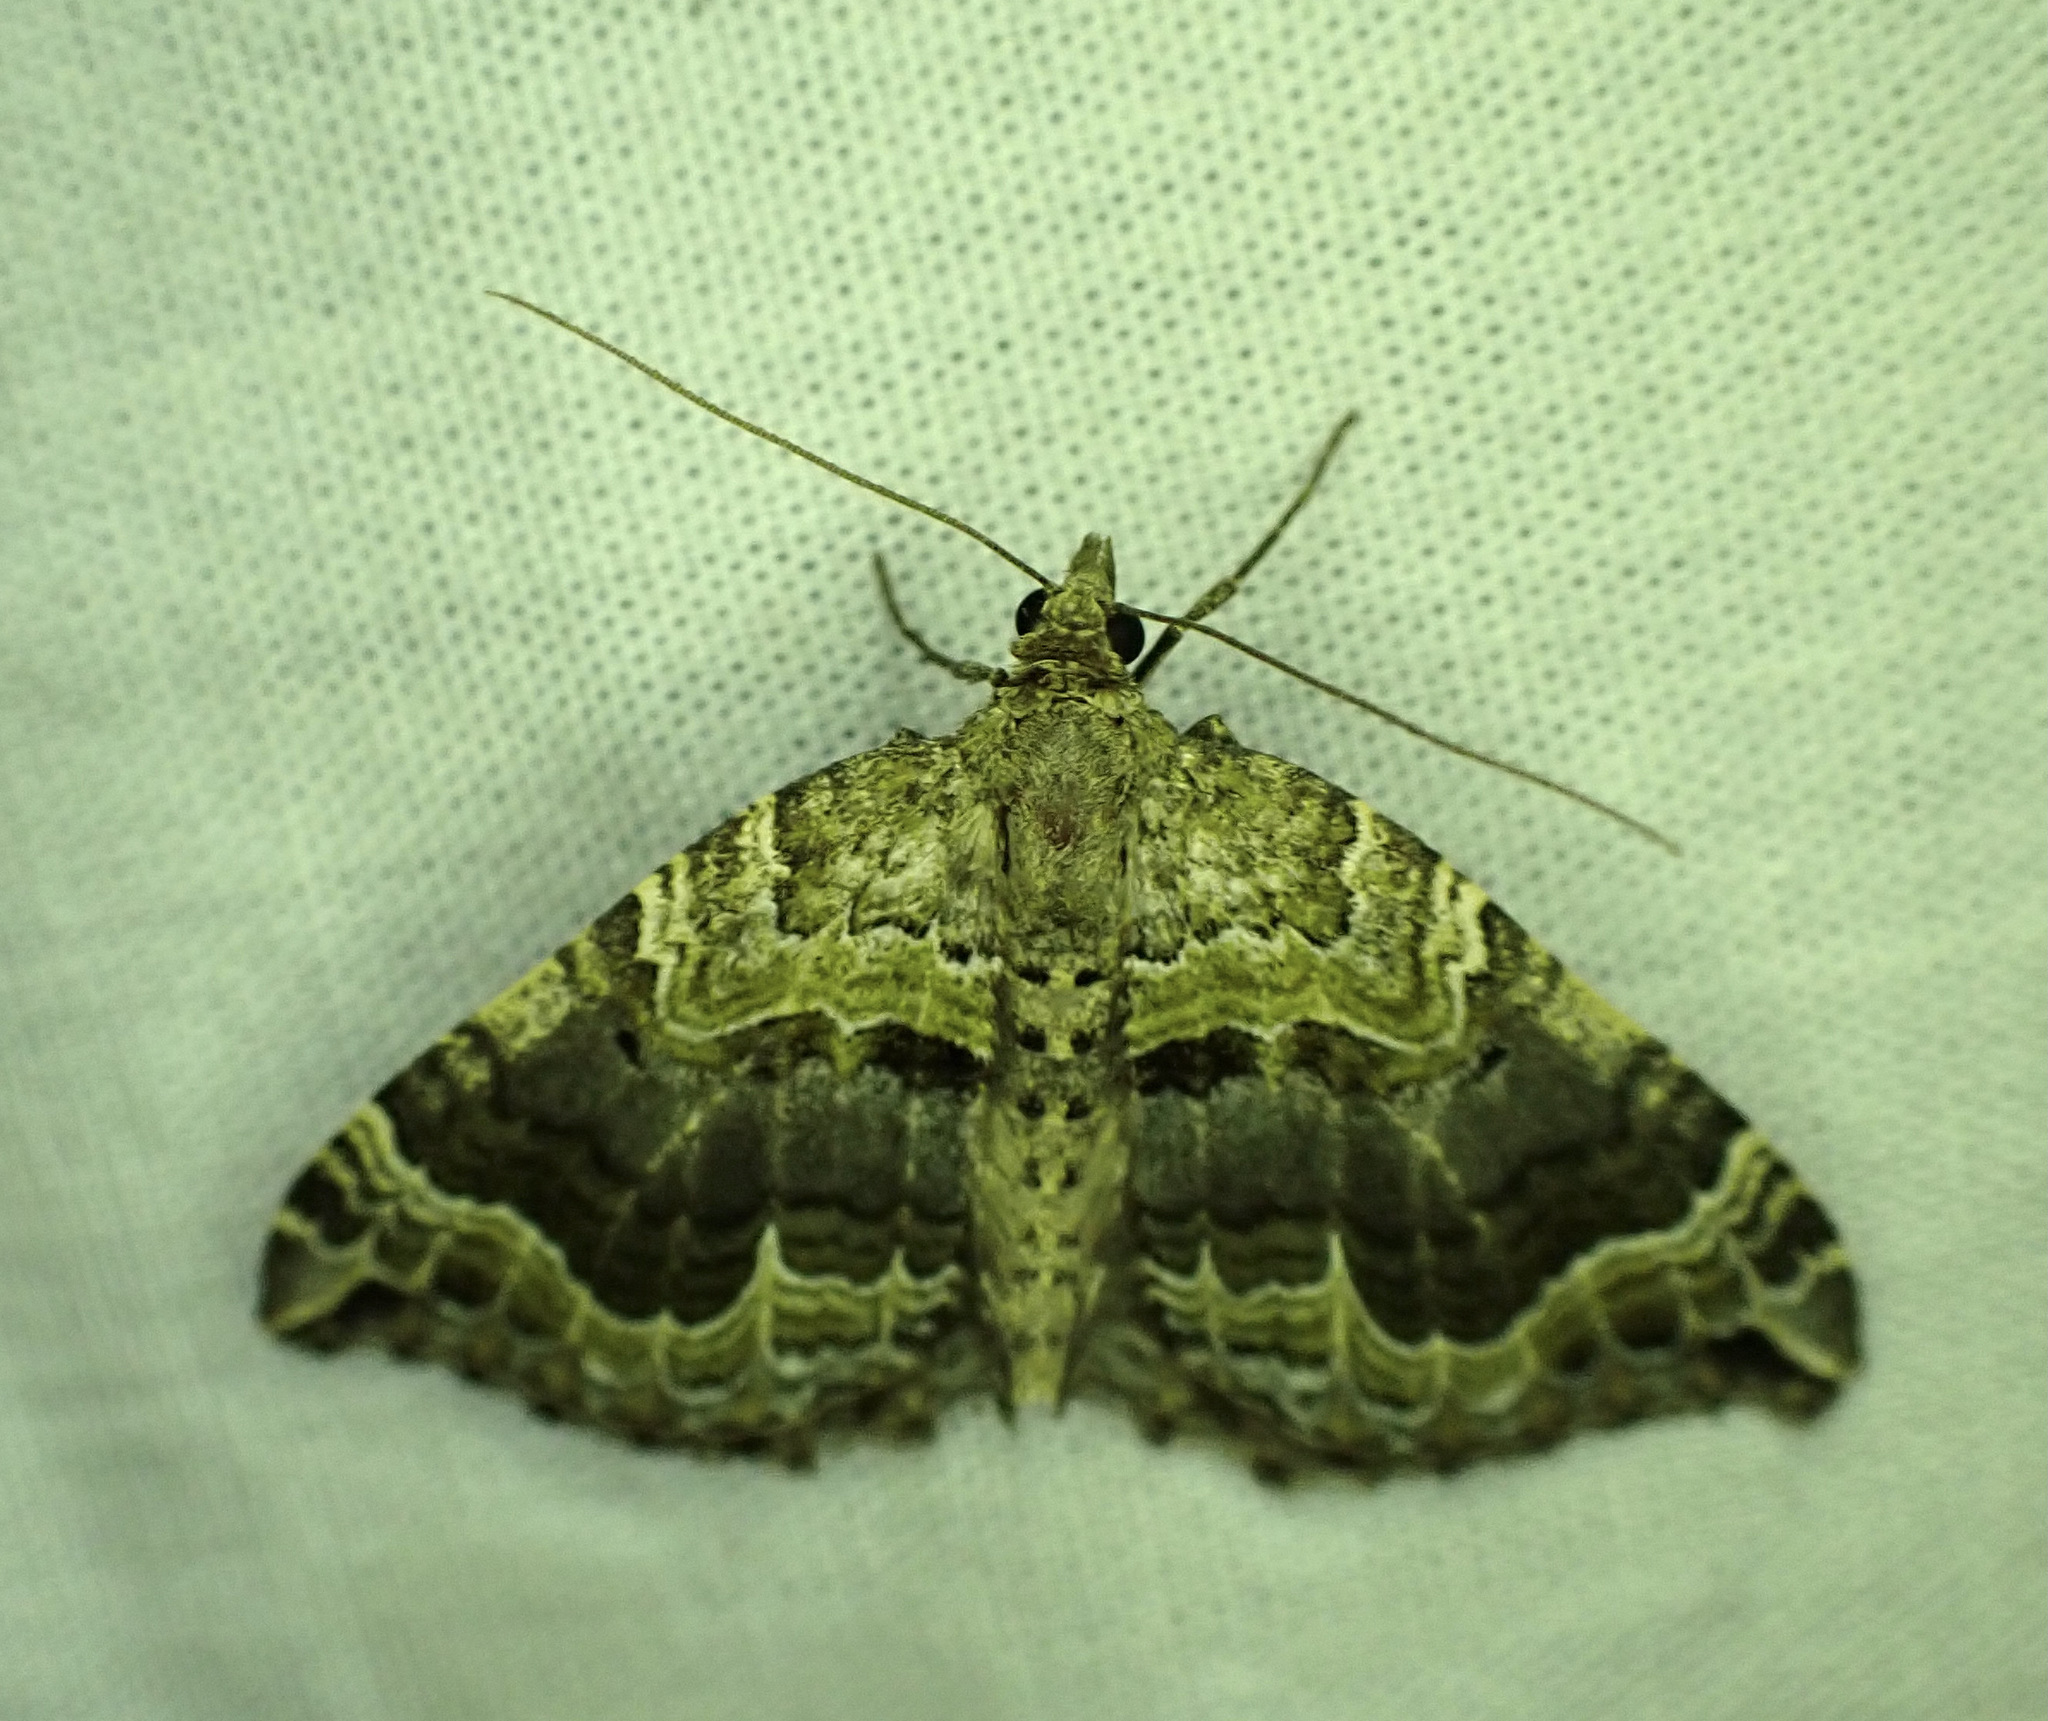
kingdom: Animalia
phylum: Arthropoda
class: Insecta
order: Lepidoptera
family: Geometridae
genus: Hydriomena
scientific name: Hydriomena rixata
